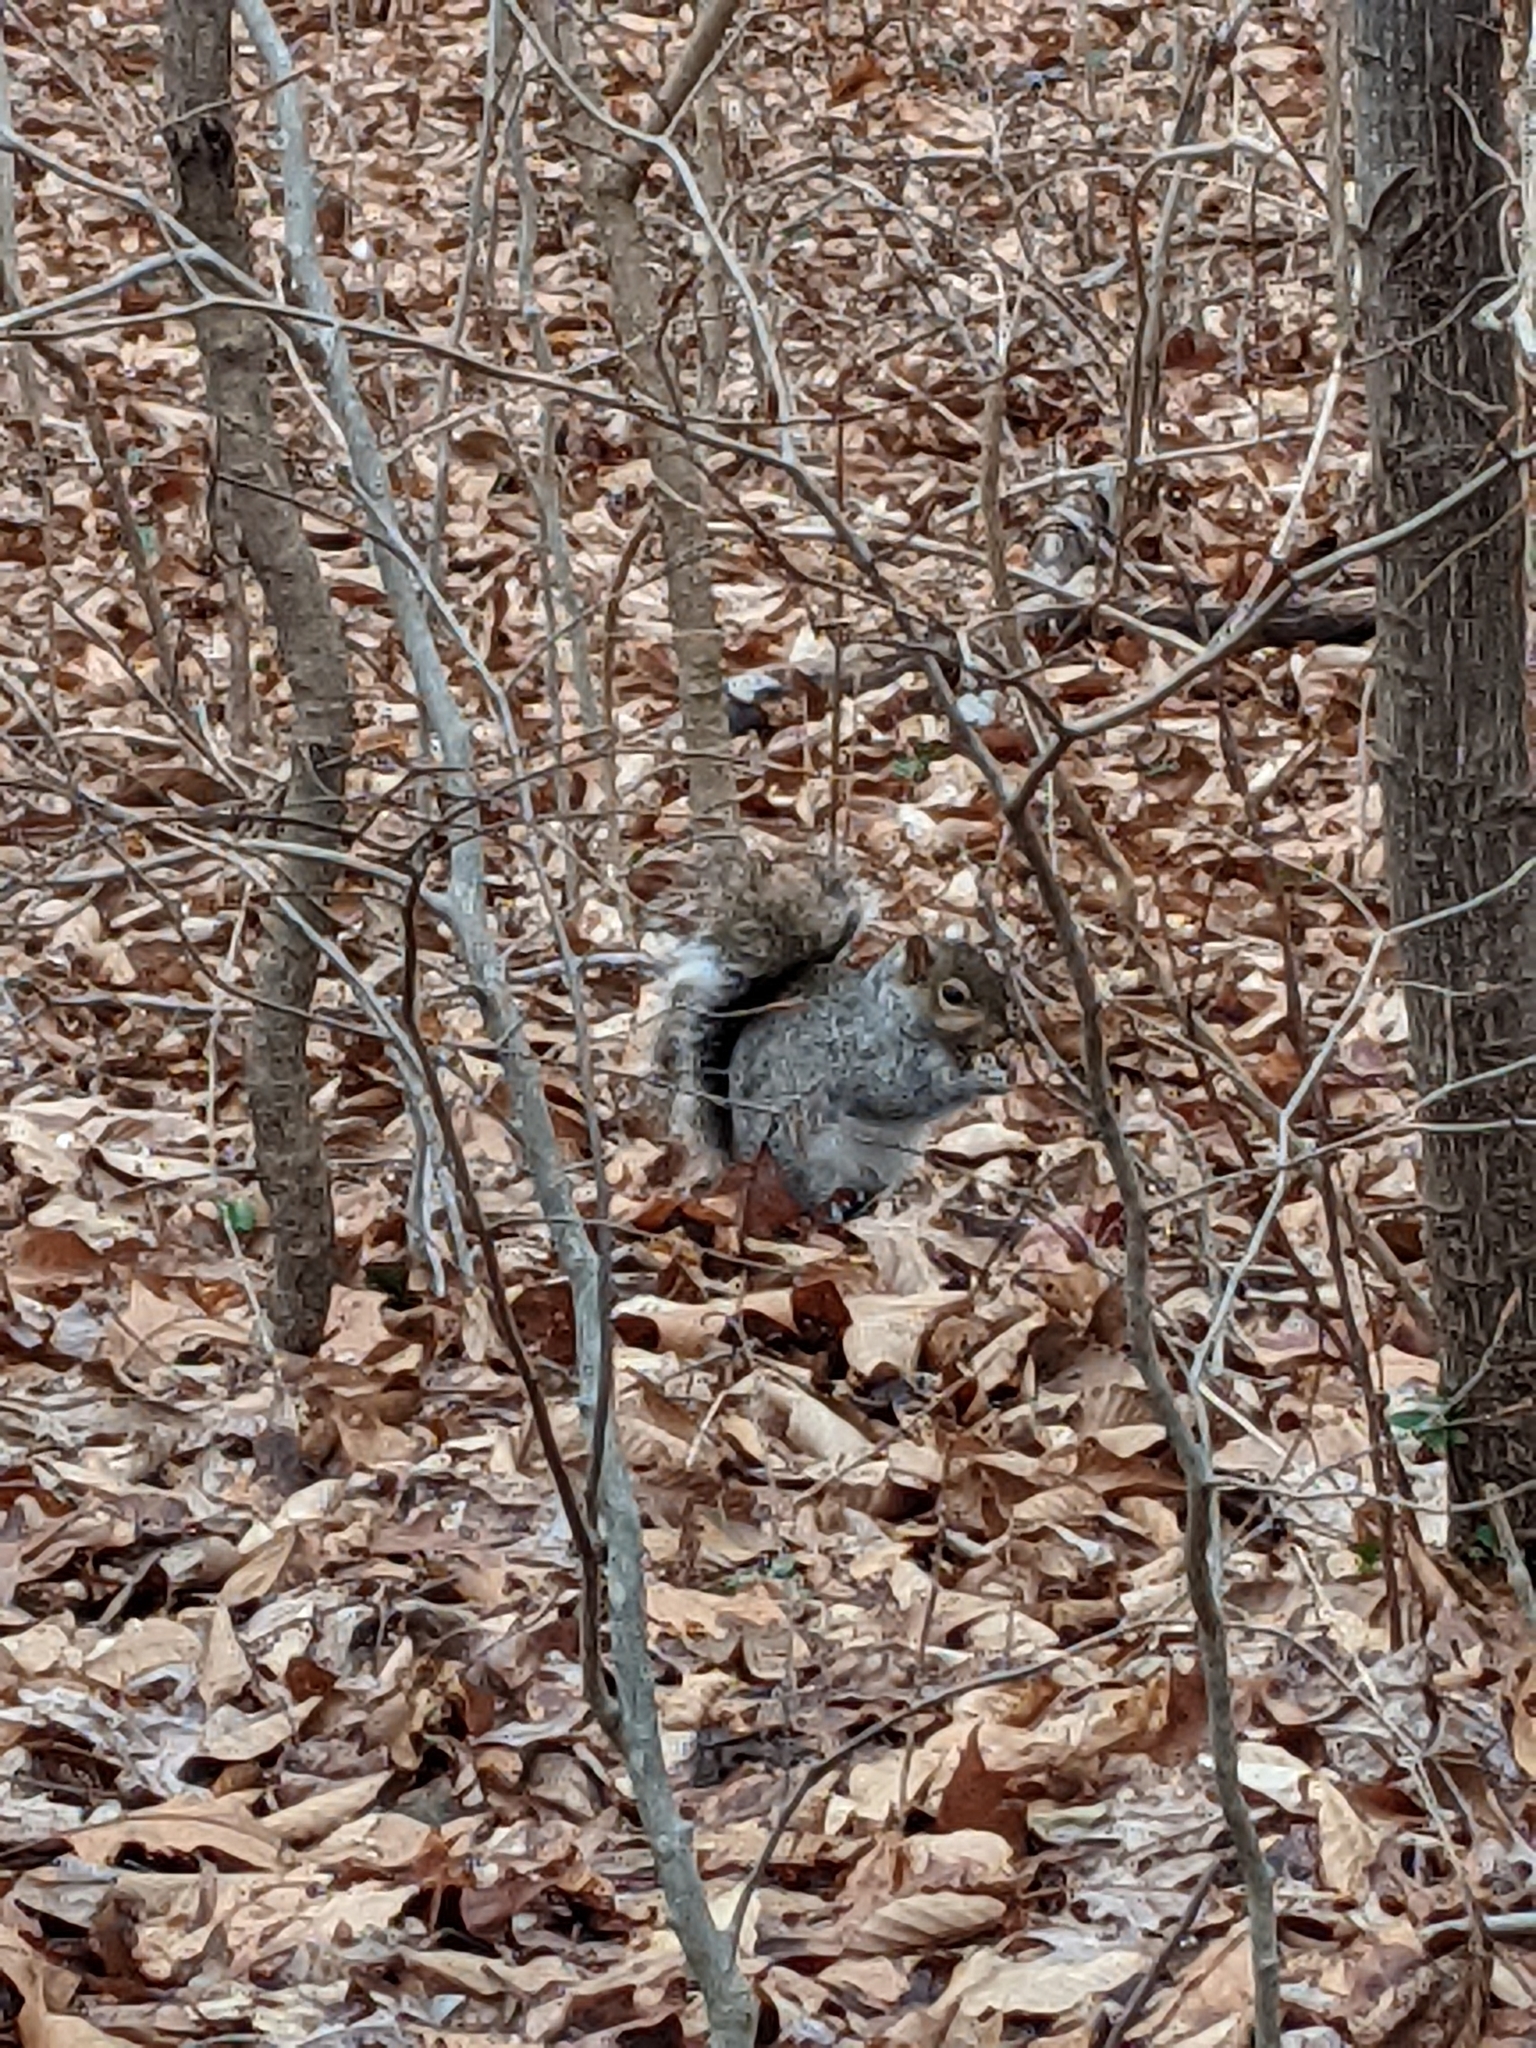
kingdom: Animalia
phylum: Chordata
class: Mammalia
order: Rodentia
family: Sciuridae
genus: Sciurus
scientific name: Sciurus carolinensis
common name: Eastern gray squirrel
